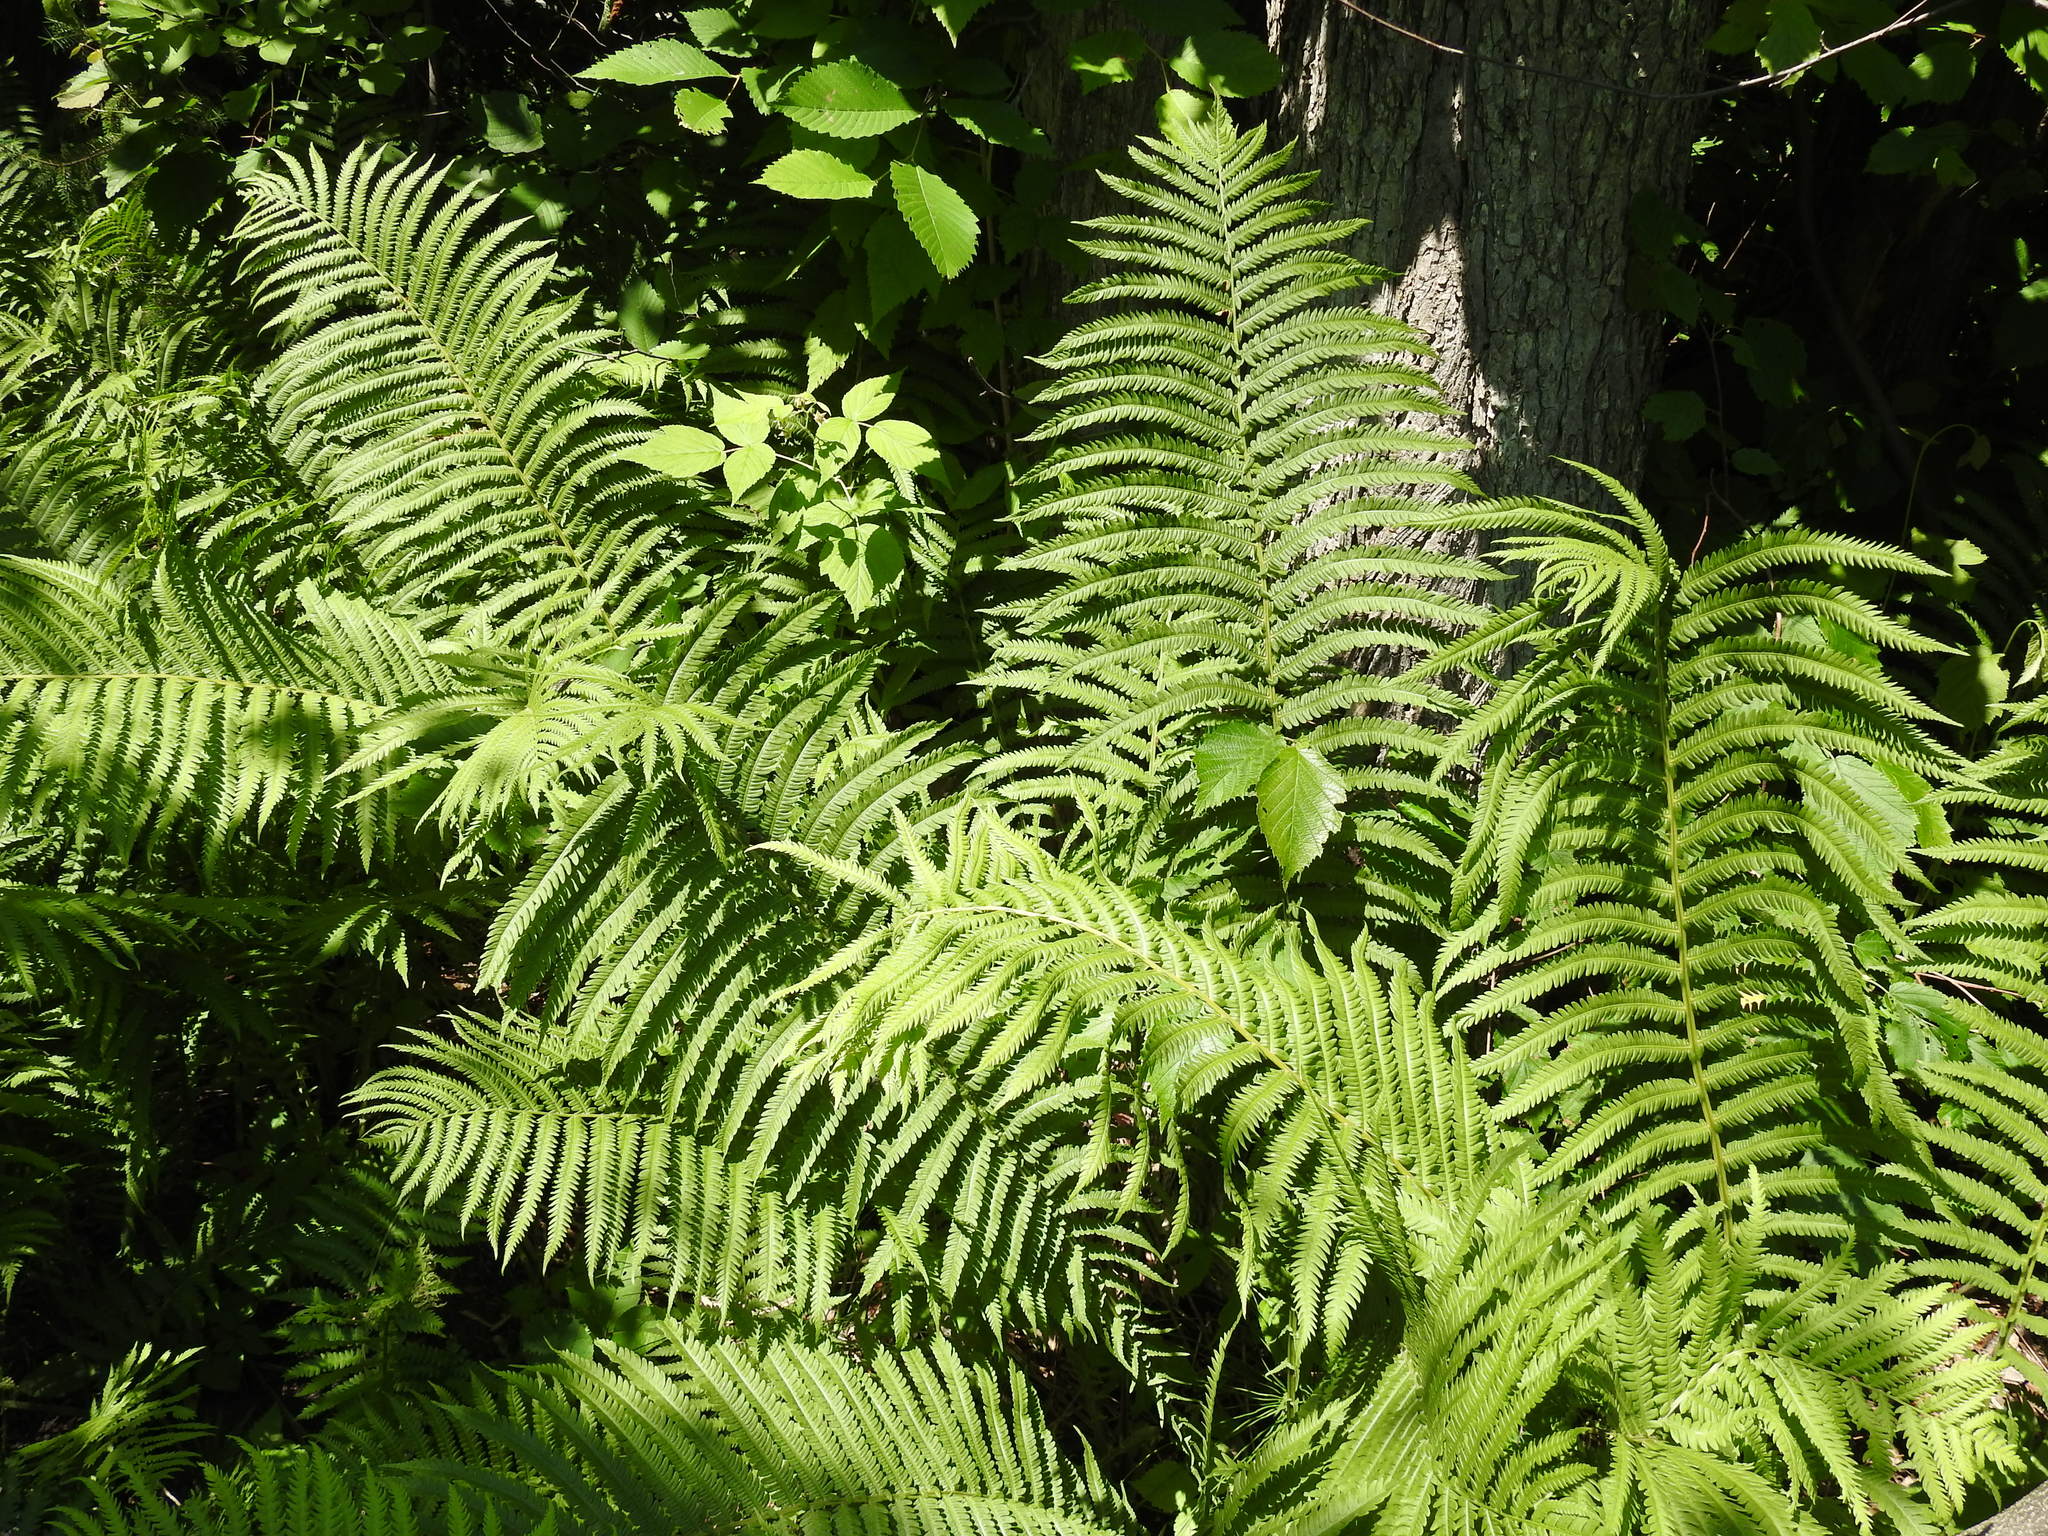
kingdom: Plantae
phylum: Tracheophyta
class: Polypodiopsida
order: Polypodiales
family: Onocleaceae
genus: Matteuccia
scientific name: Matteuccia struthiopteris
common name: Ostrich fern
